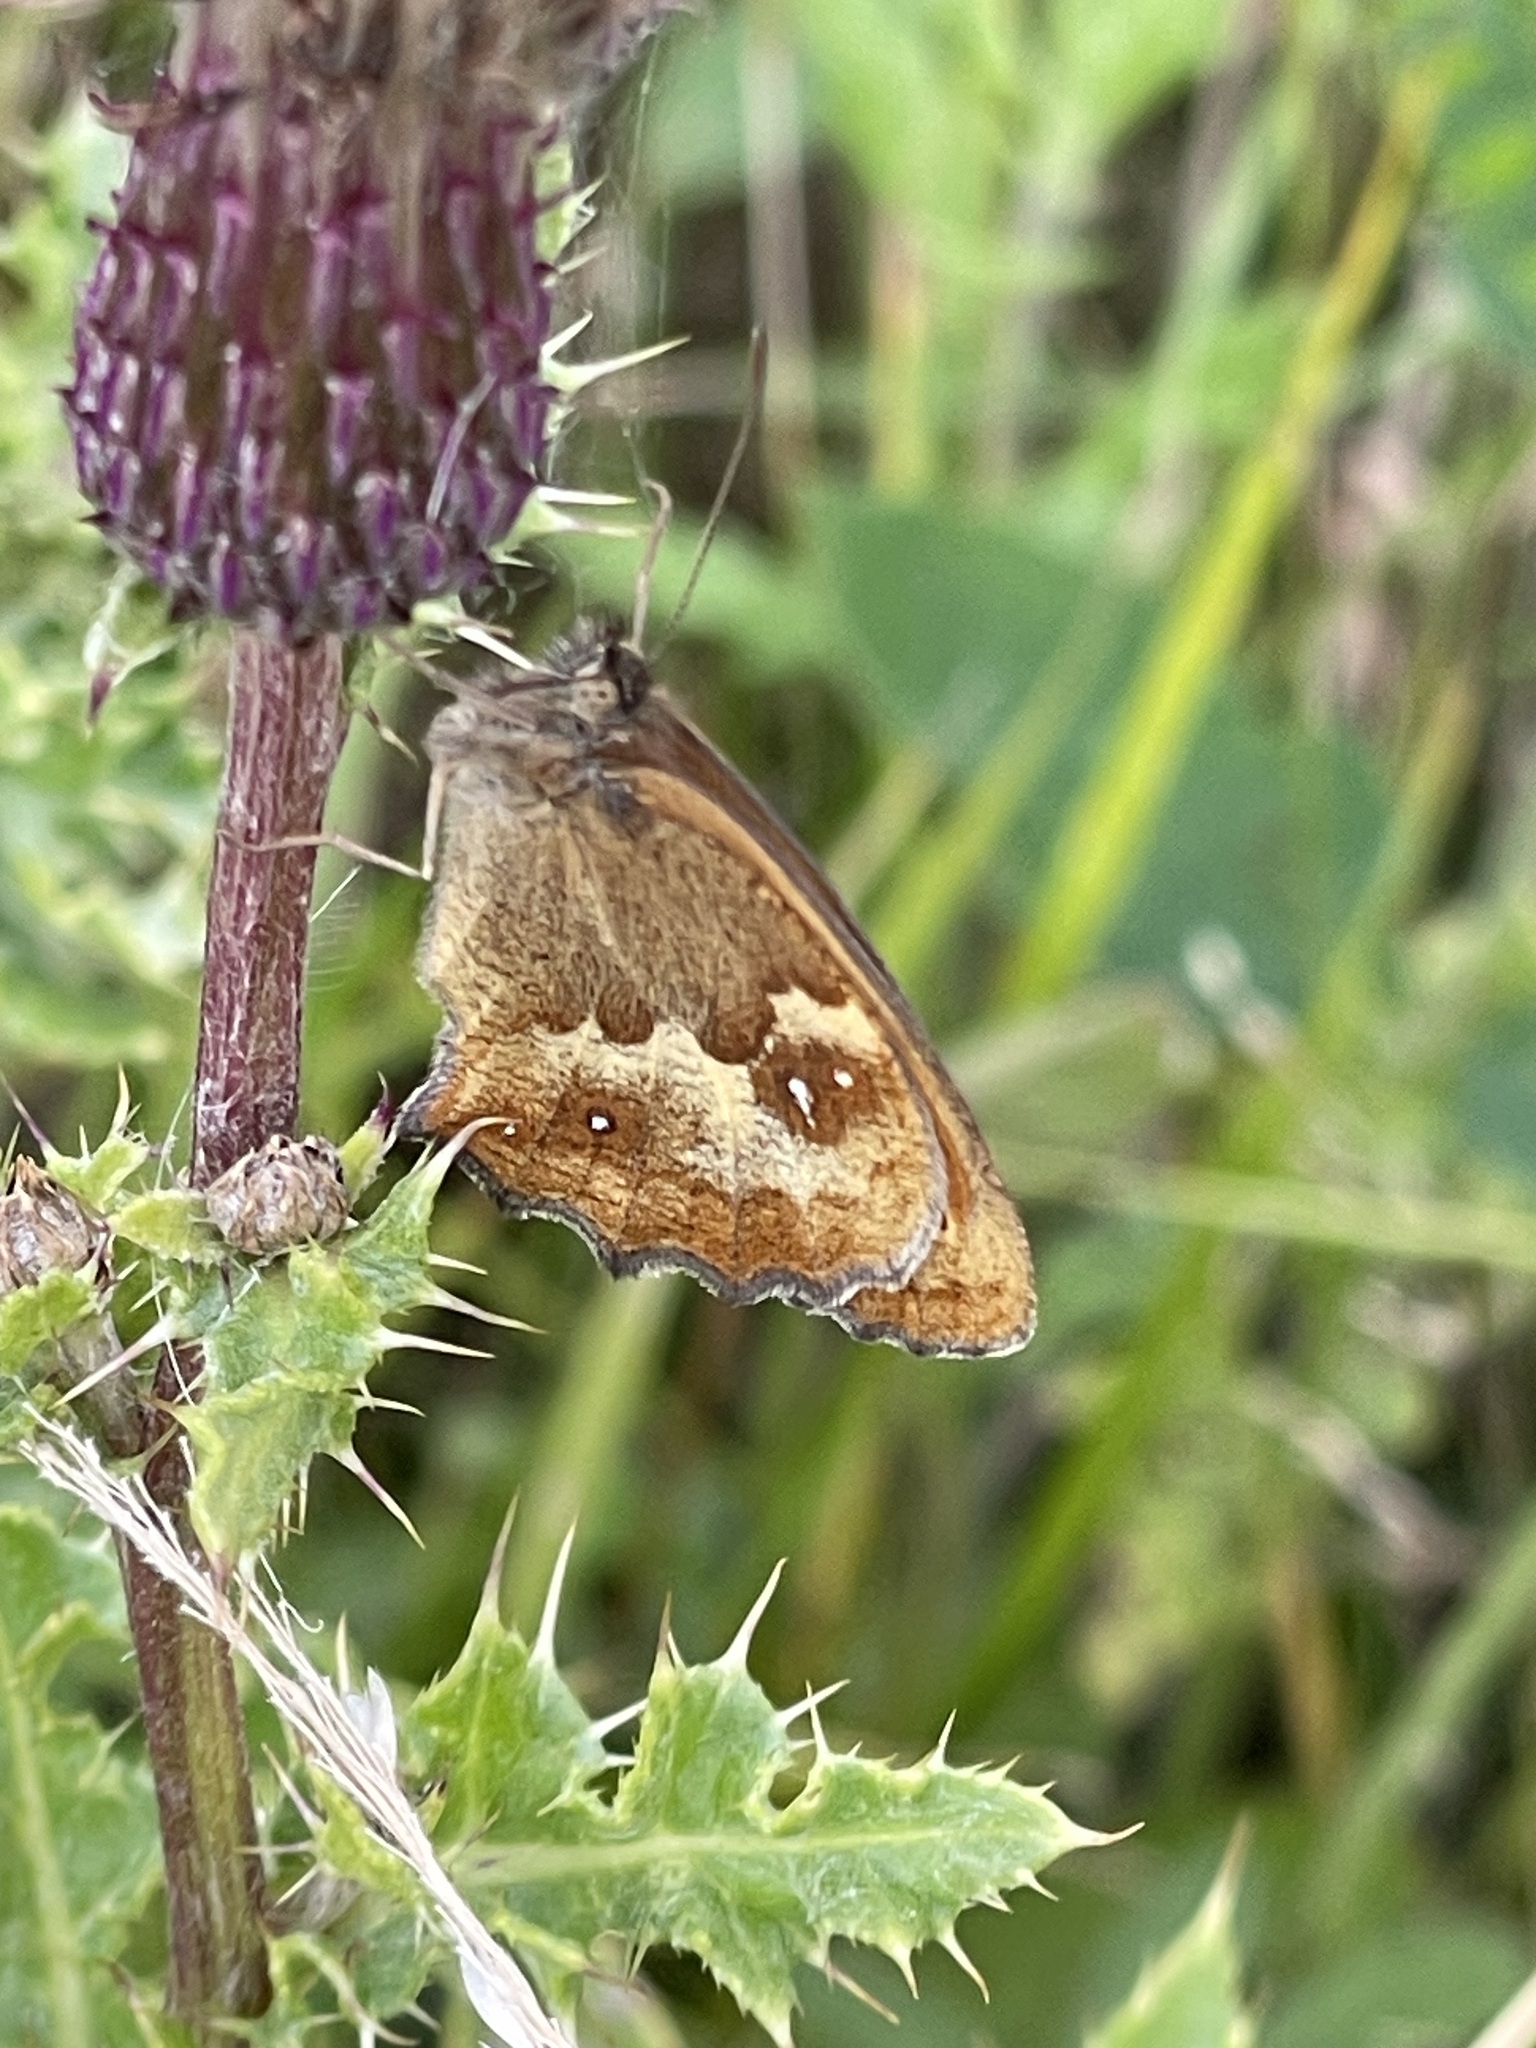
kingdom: Animalia
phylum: Arthropoda
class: Insecta
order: Lepidoptera
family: Nymphalidae
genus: Pyronia
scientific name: Pyronia tithonus
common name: Gatekeeper
